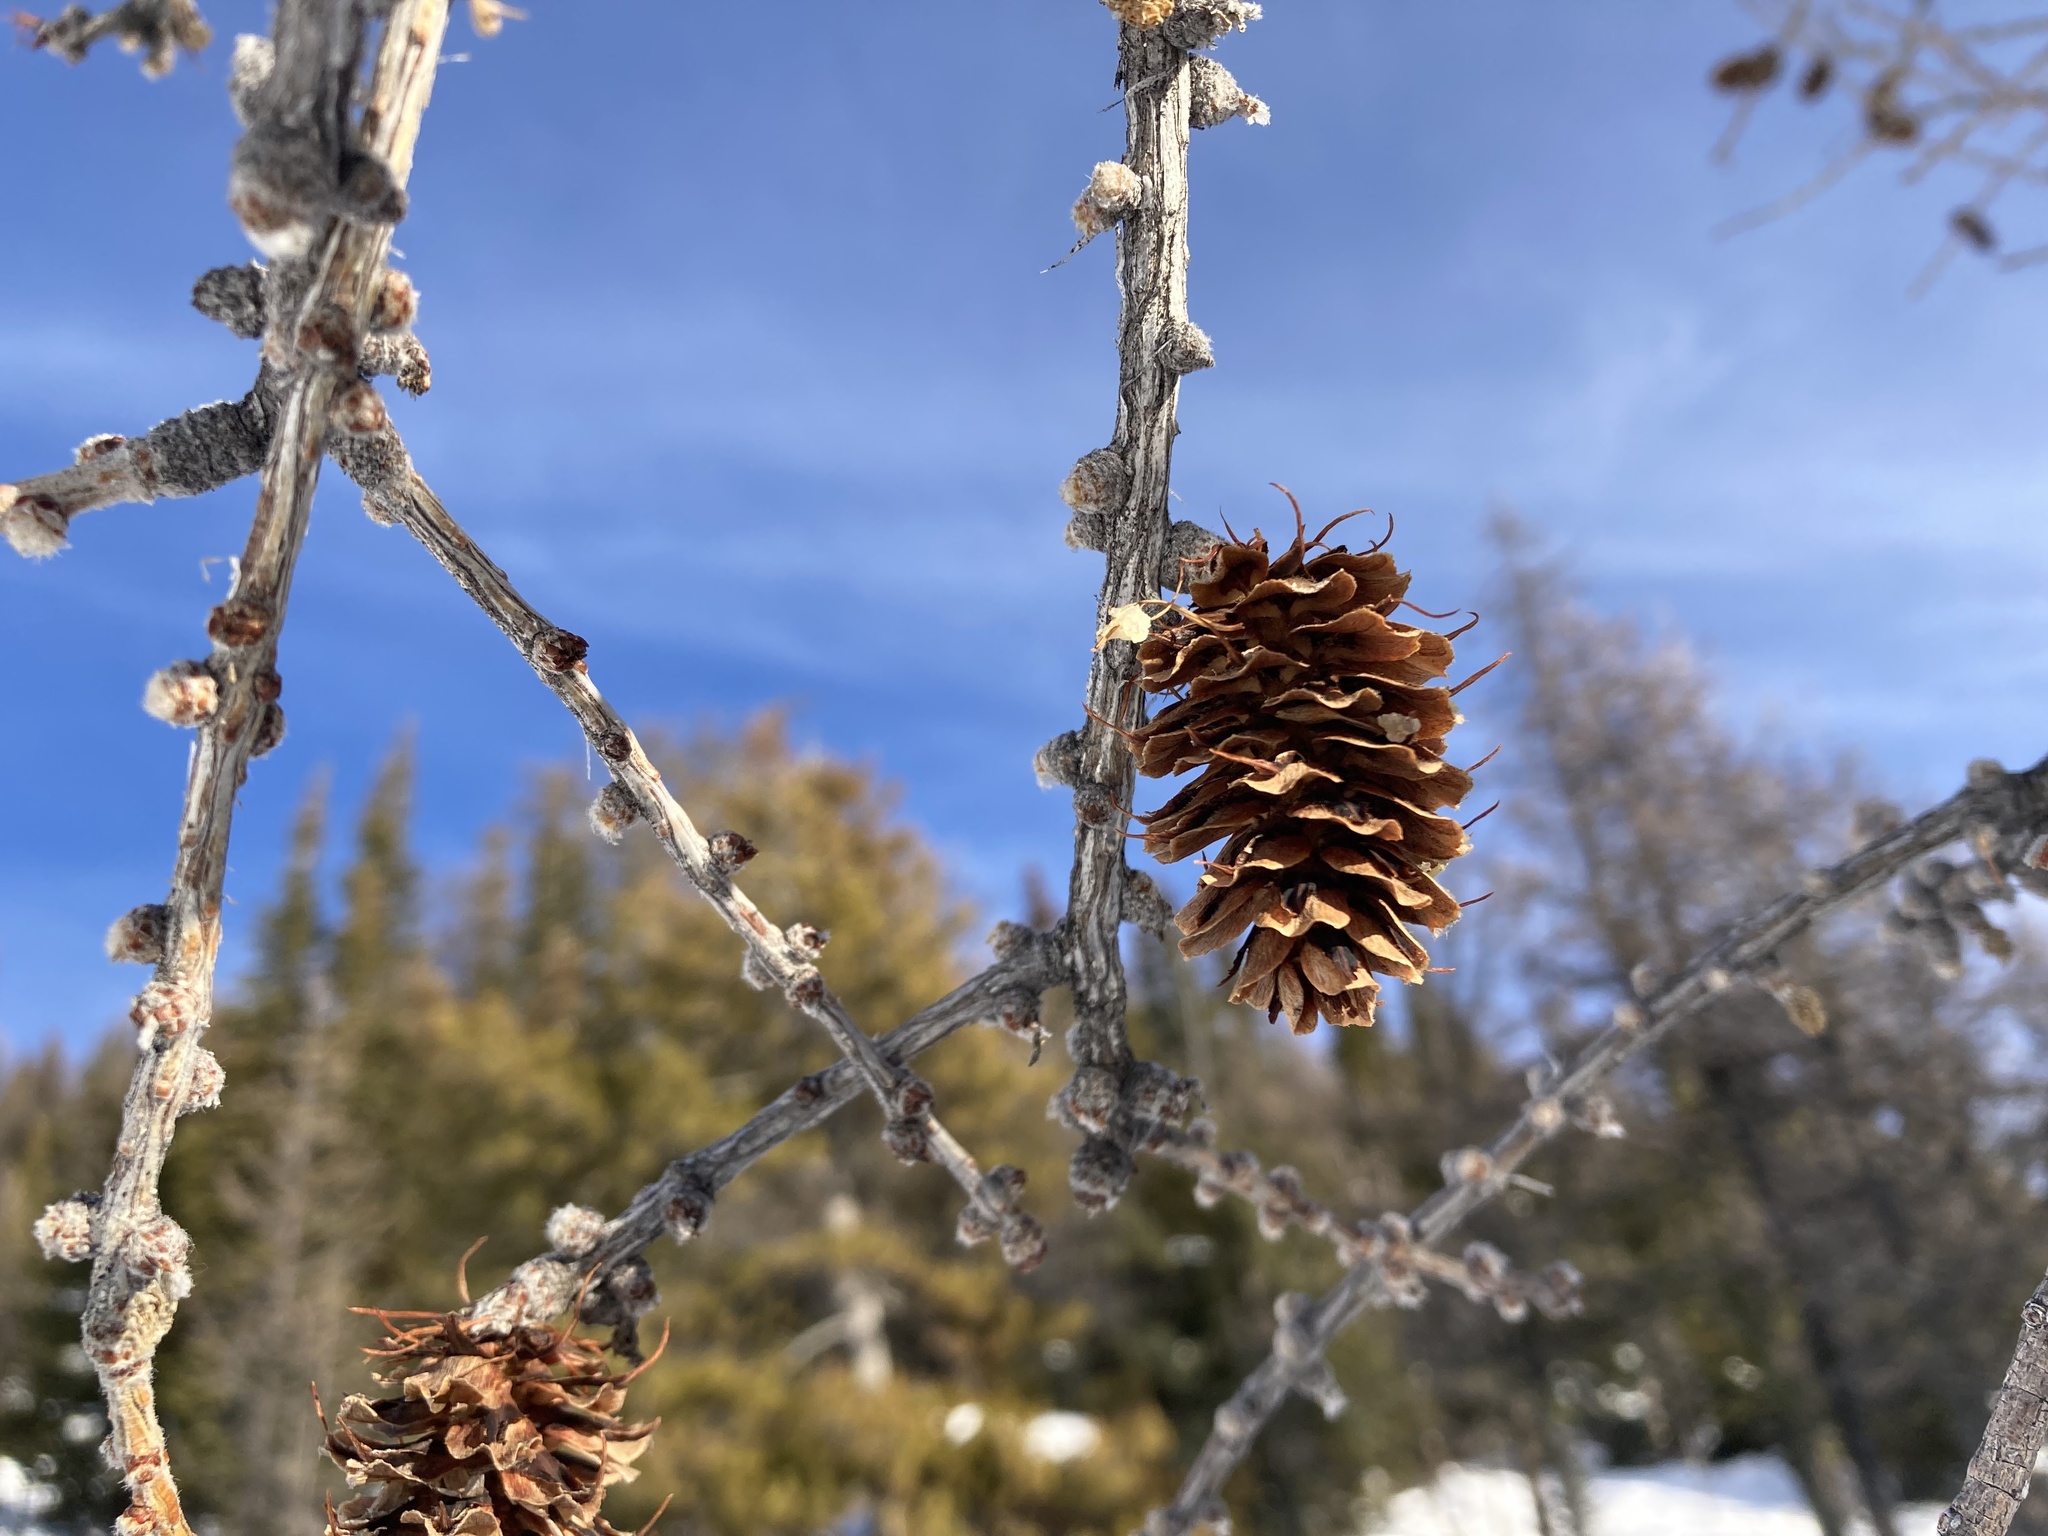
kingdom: Plantae
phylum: Tracheophyta
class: Pinopsida
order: Pinales
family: Pinaceae
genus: Larix
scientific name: Larix lyallii
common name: Alpine larch
